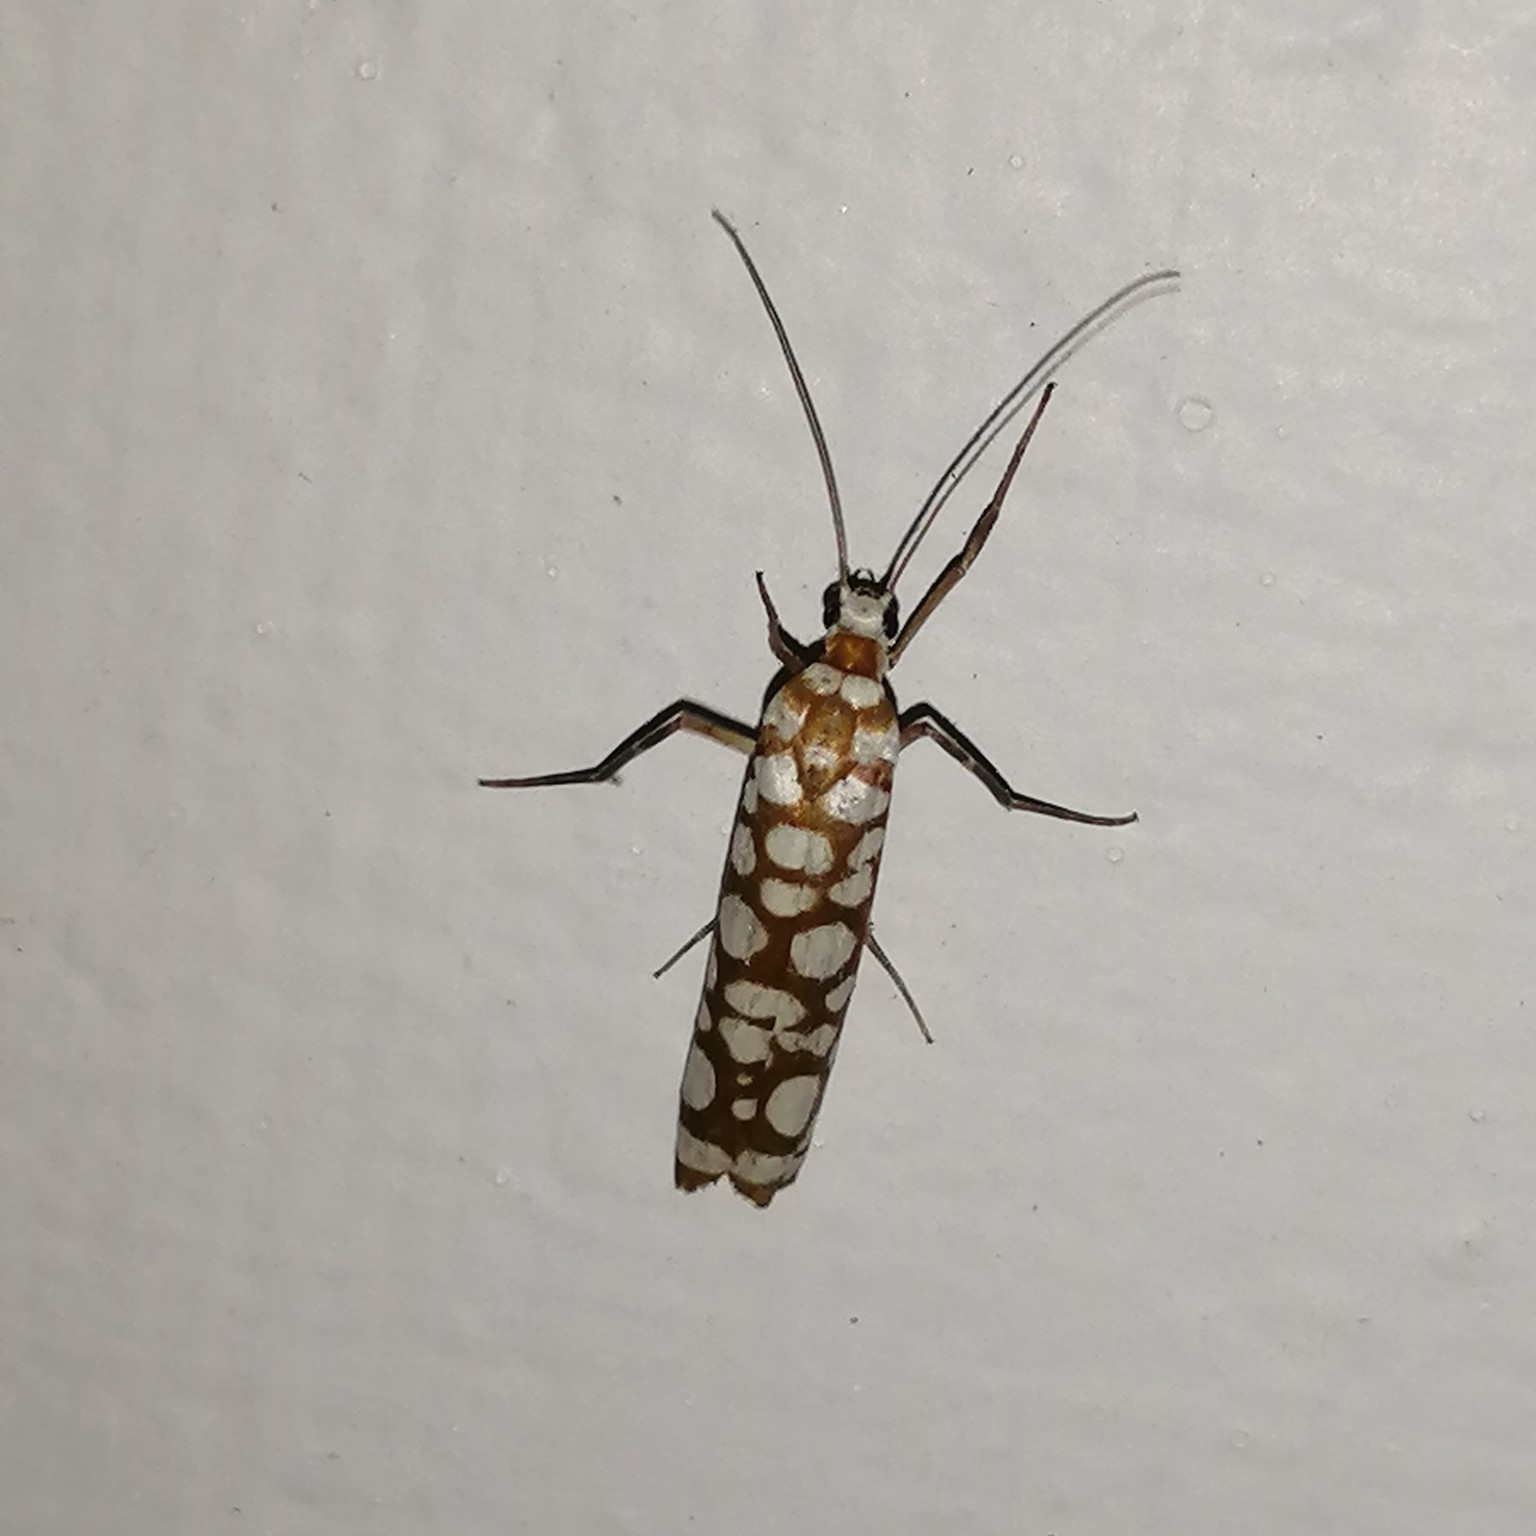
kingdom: Animalia
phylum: Arthropoda
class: Insecta
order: Lepidoptera
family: Attevidae
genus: Atteva
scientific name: Atteva fabriciella
